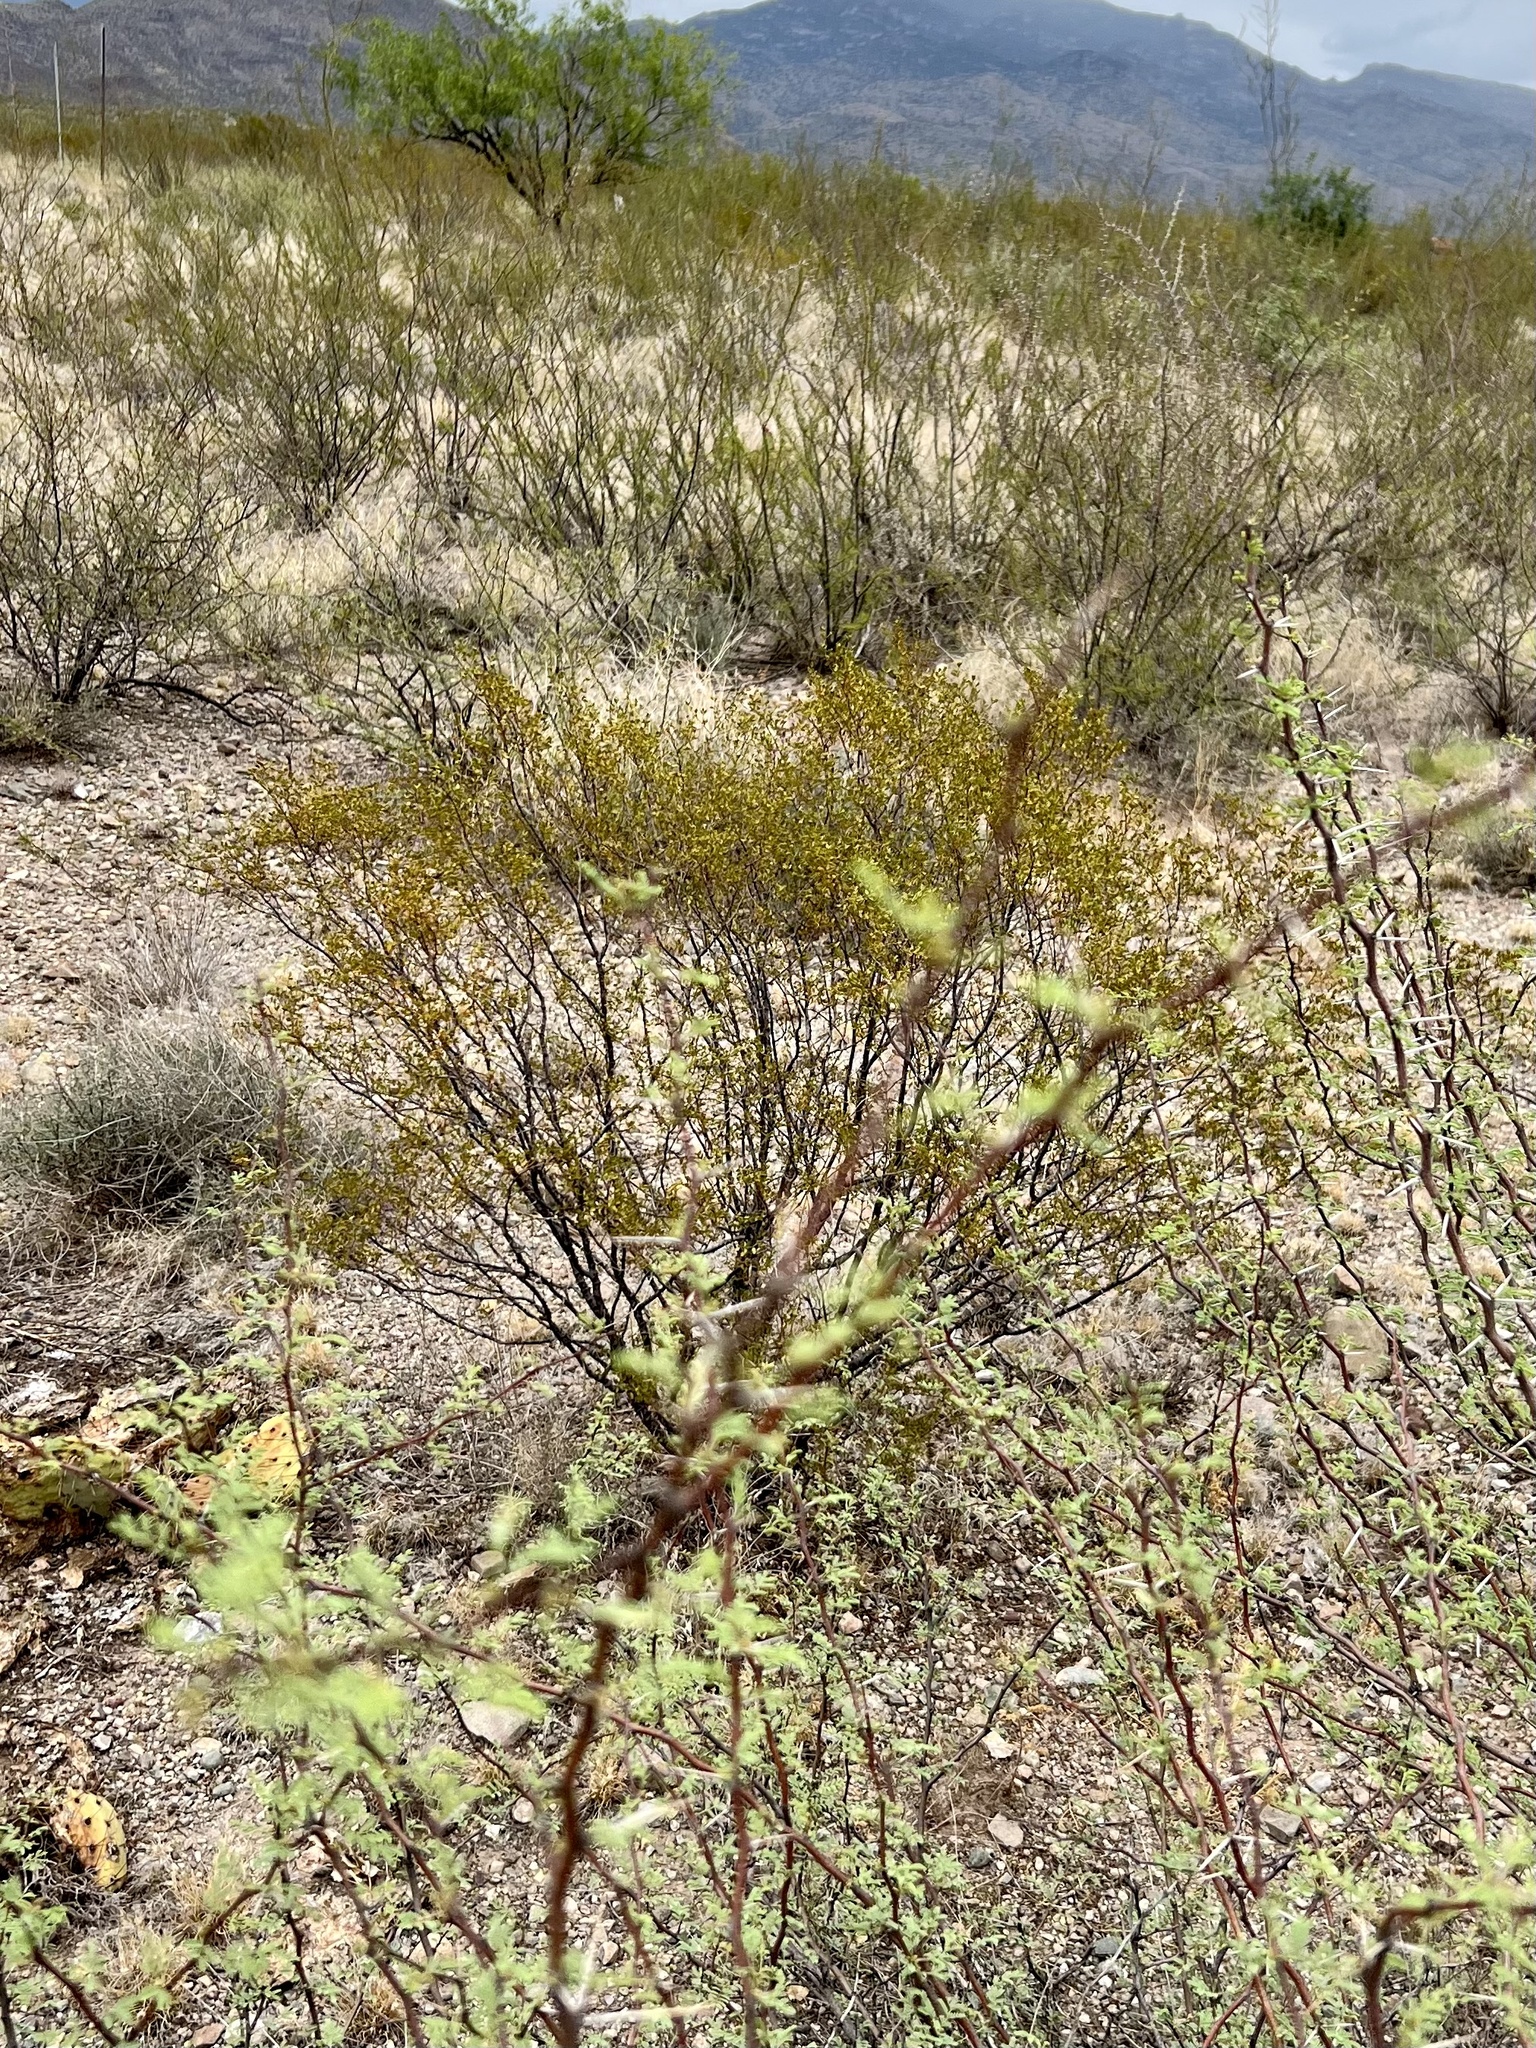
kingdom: Plantae
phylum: Tracheophyta
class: Magnoliopsida
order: Zygophyllales
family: Zygophyllaceae
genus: Larrea
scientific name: Larrea tridentata
